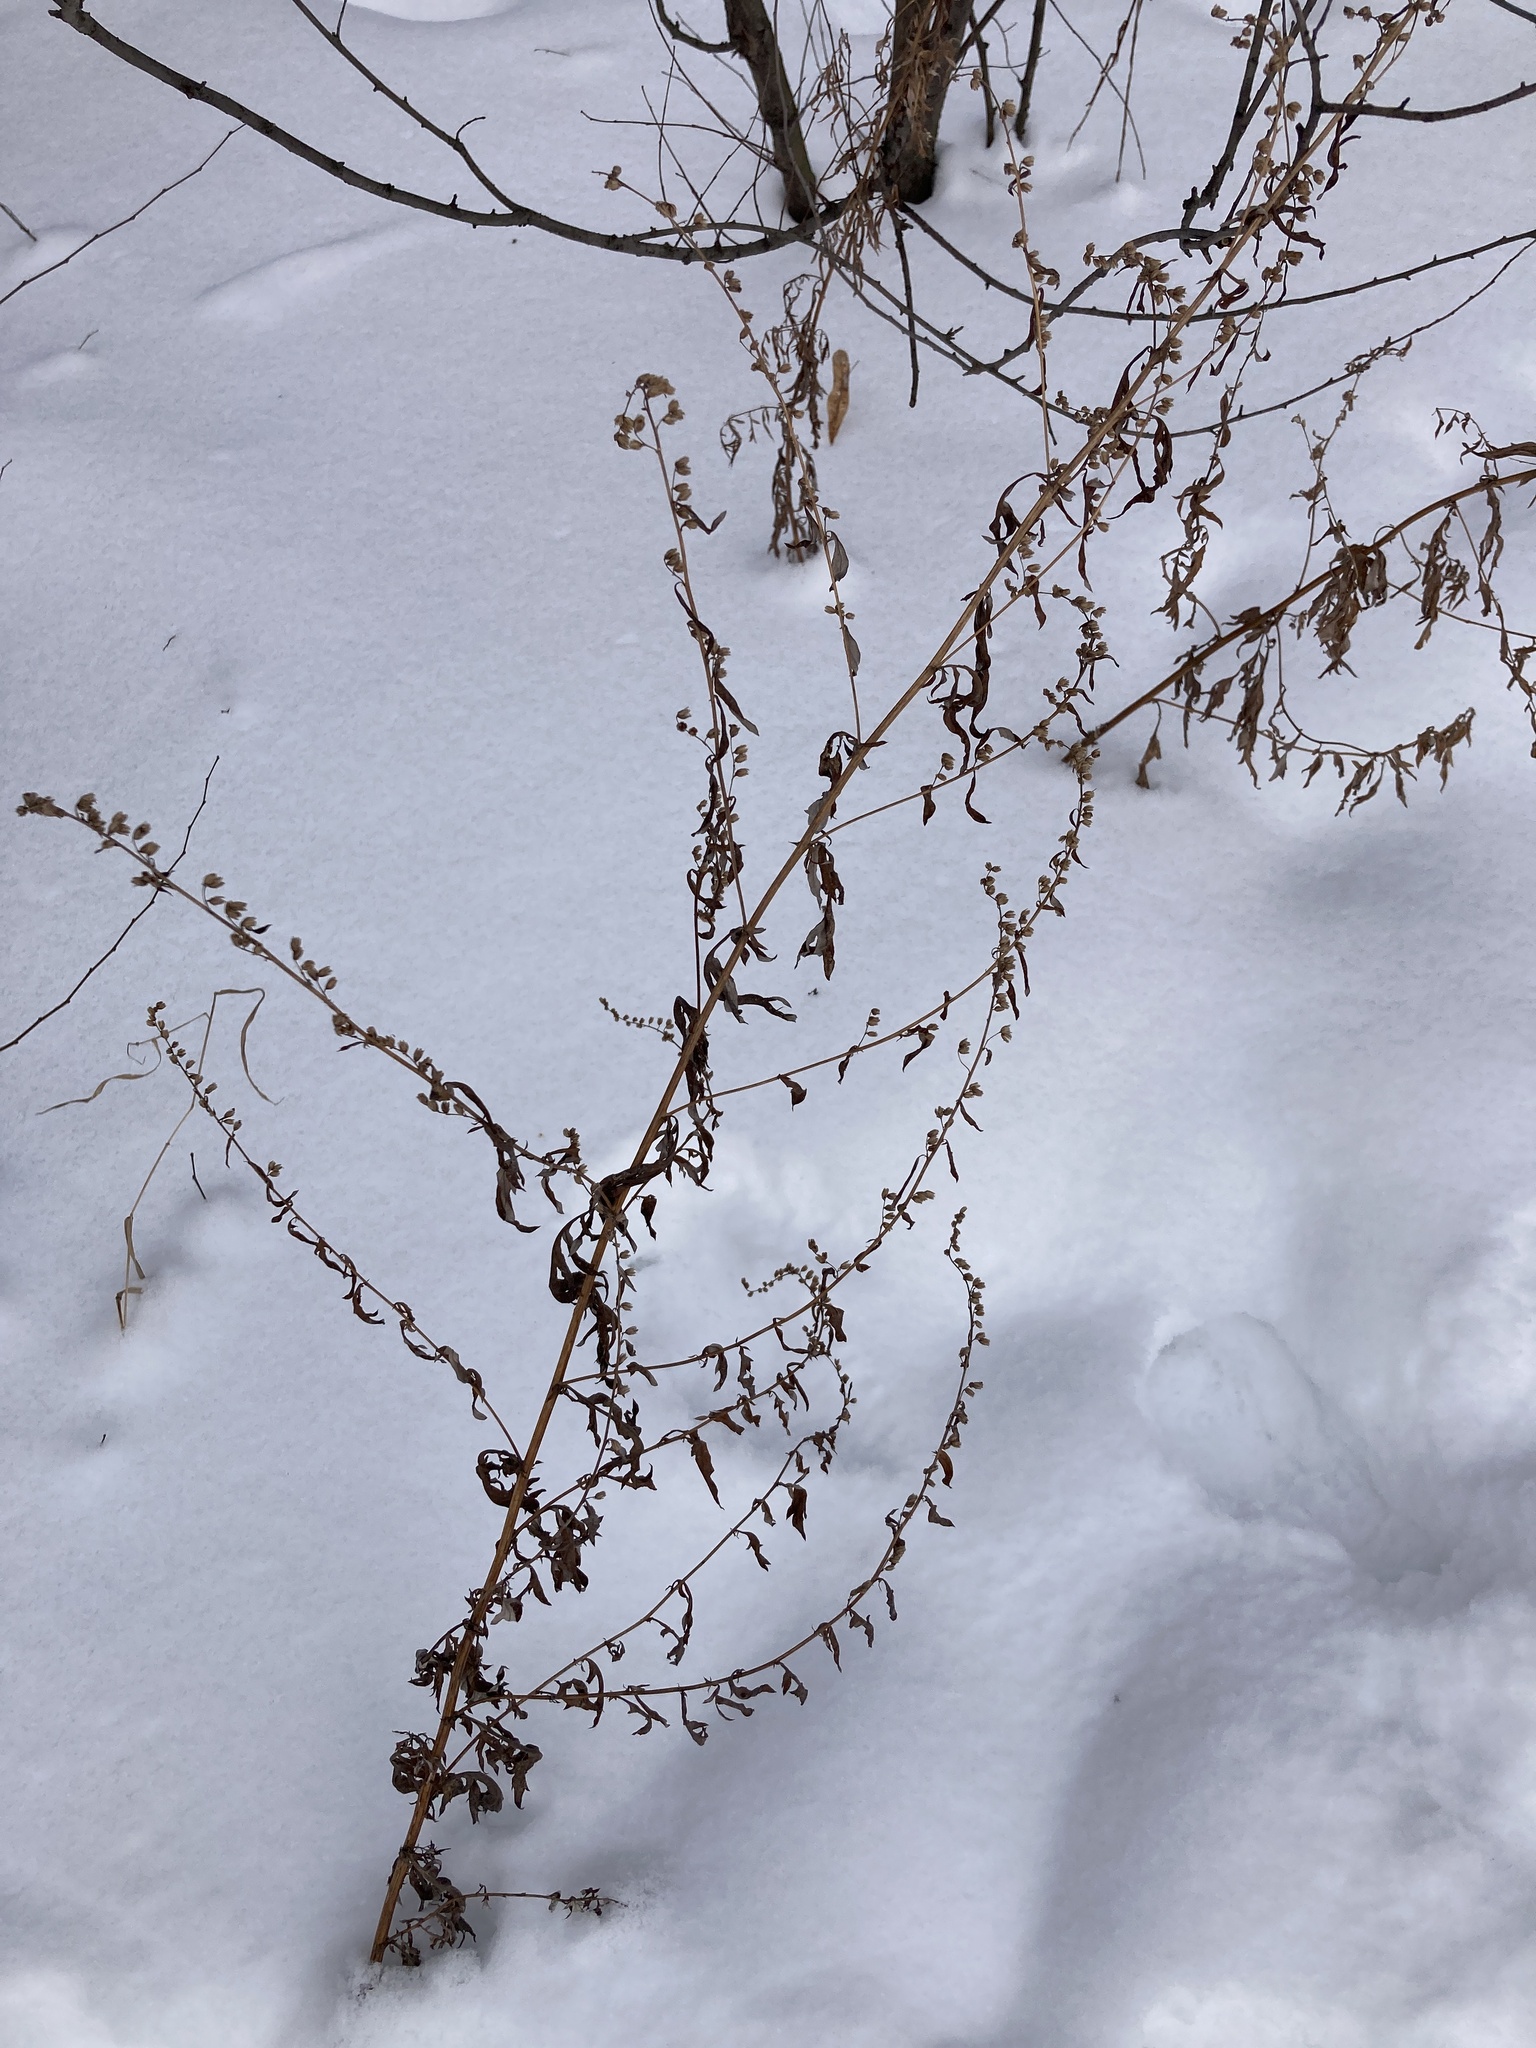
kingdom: Plantae
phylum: Tracheophyta
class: Magnoliopsida
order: Asterales
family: Asteraceae
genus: Artemisia
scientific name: Artemisia vulgaris
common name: Mugwort
